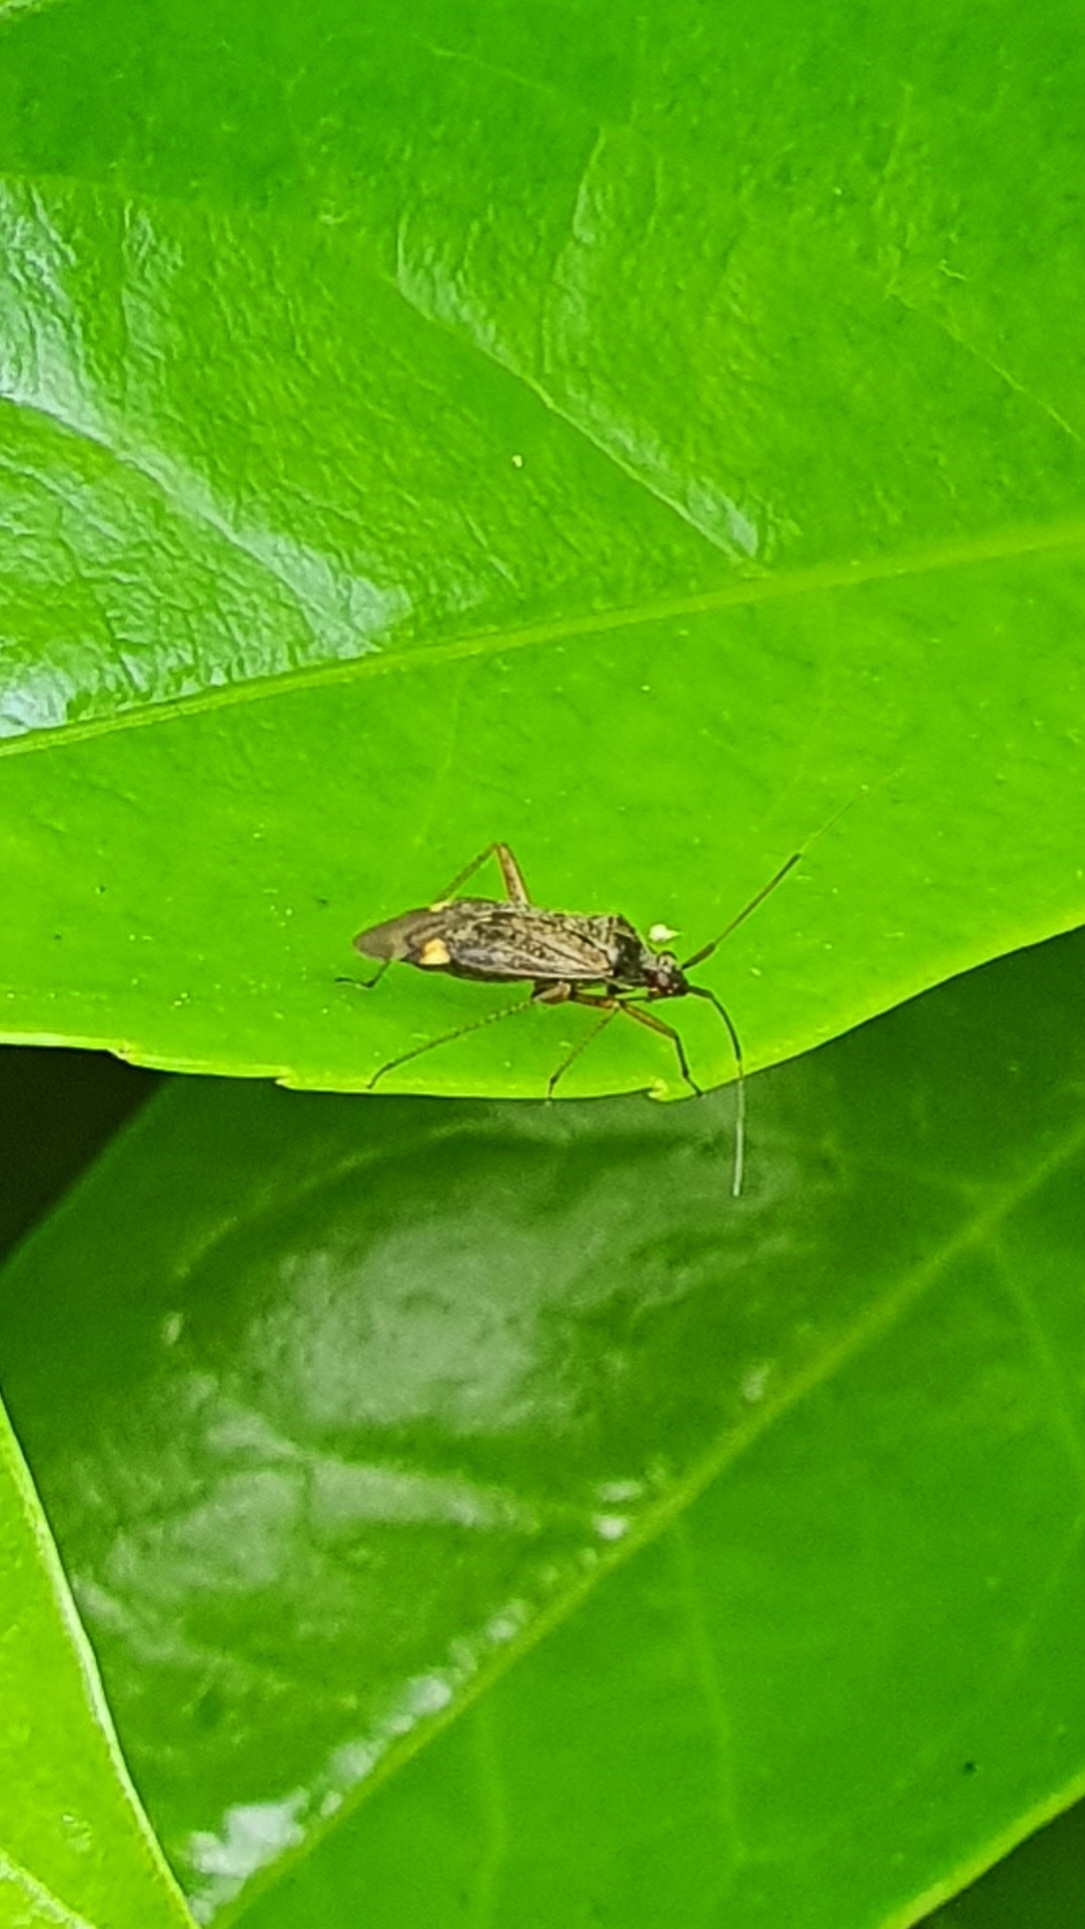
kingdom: Animalia
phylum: Arthropoda
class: Insecta
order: Hemiptera
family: Miridae
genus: Closterotomus
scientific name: Closterotomus fulvomaculatus
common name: Spotted plant bug
